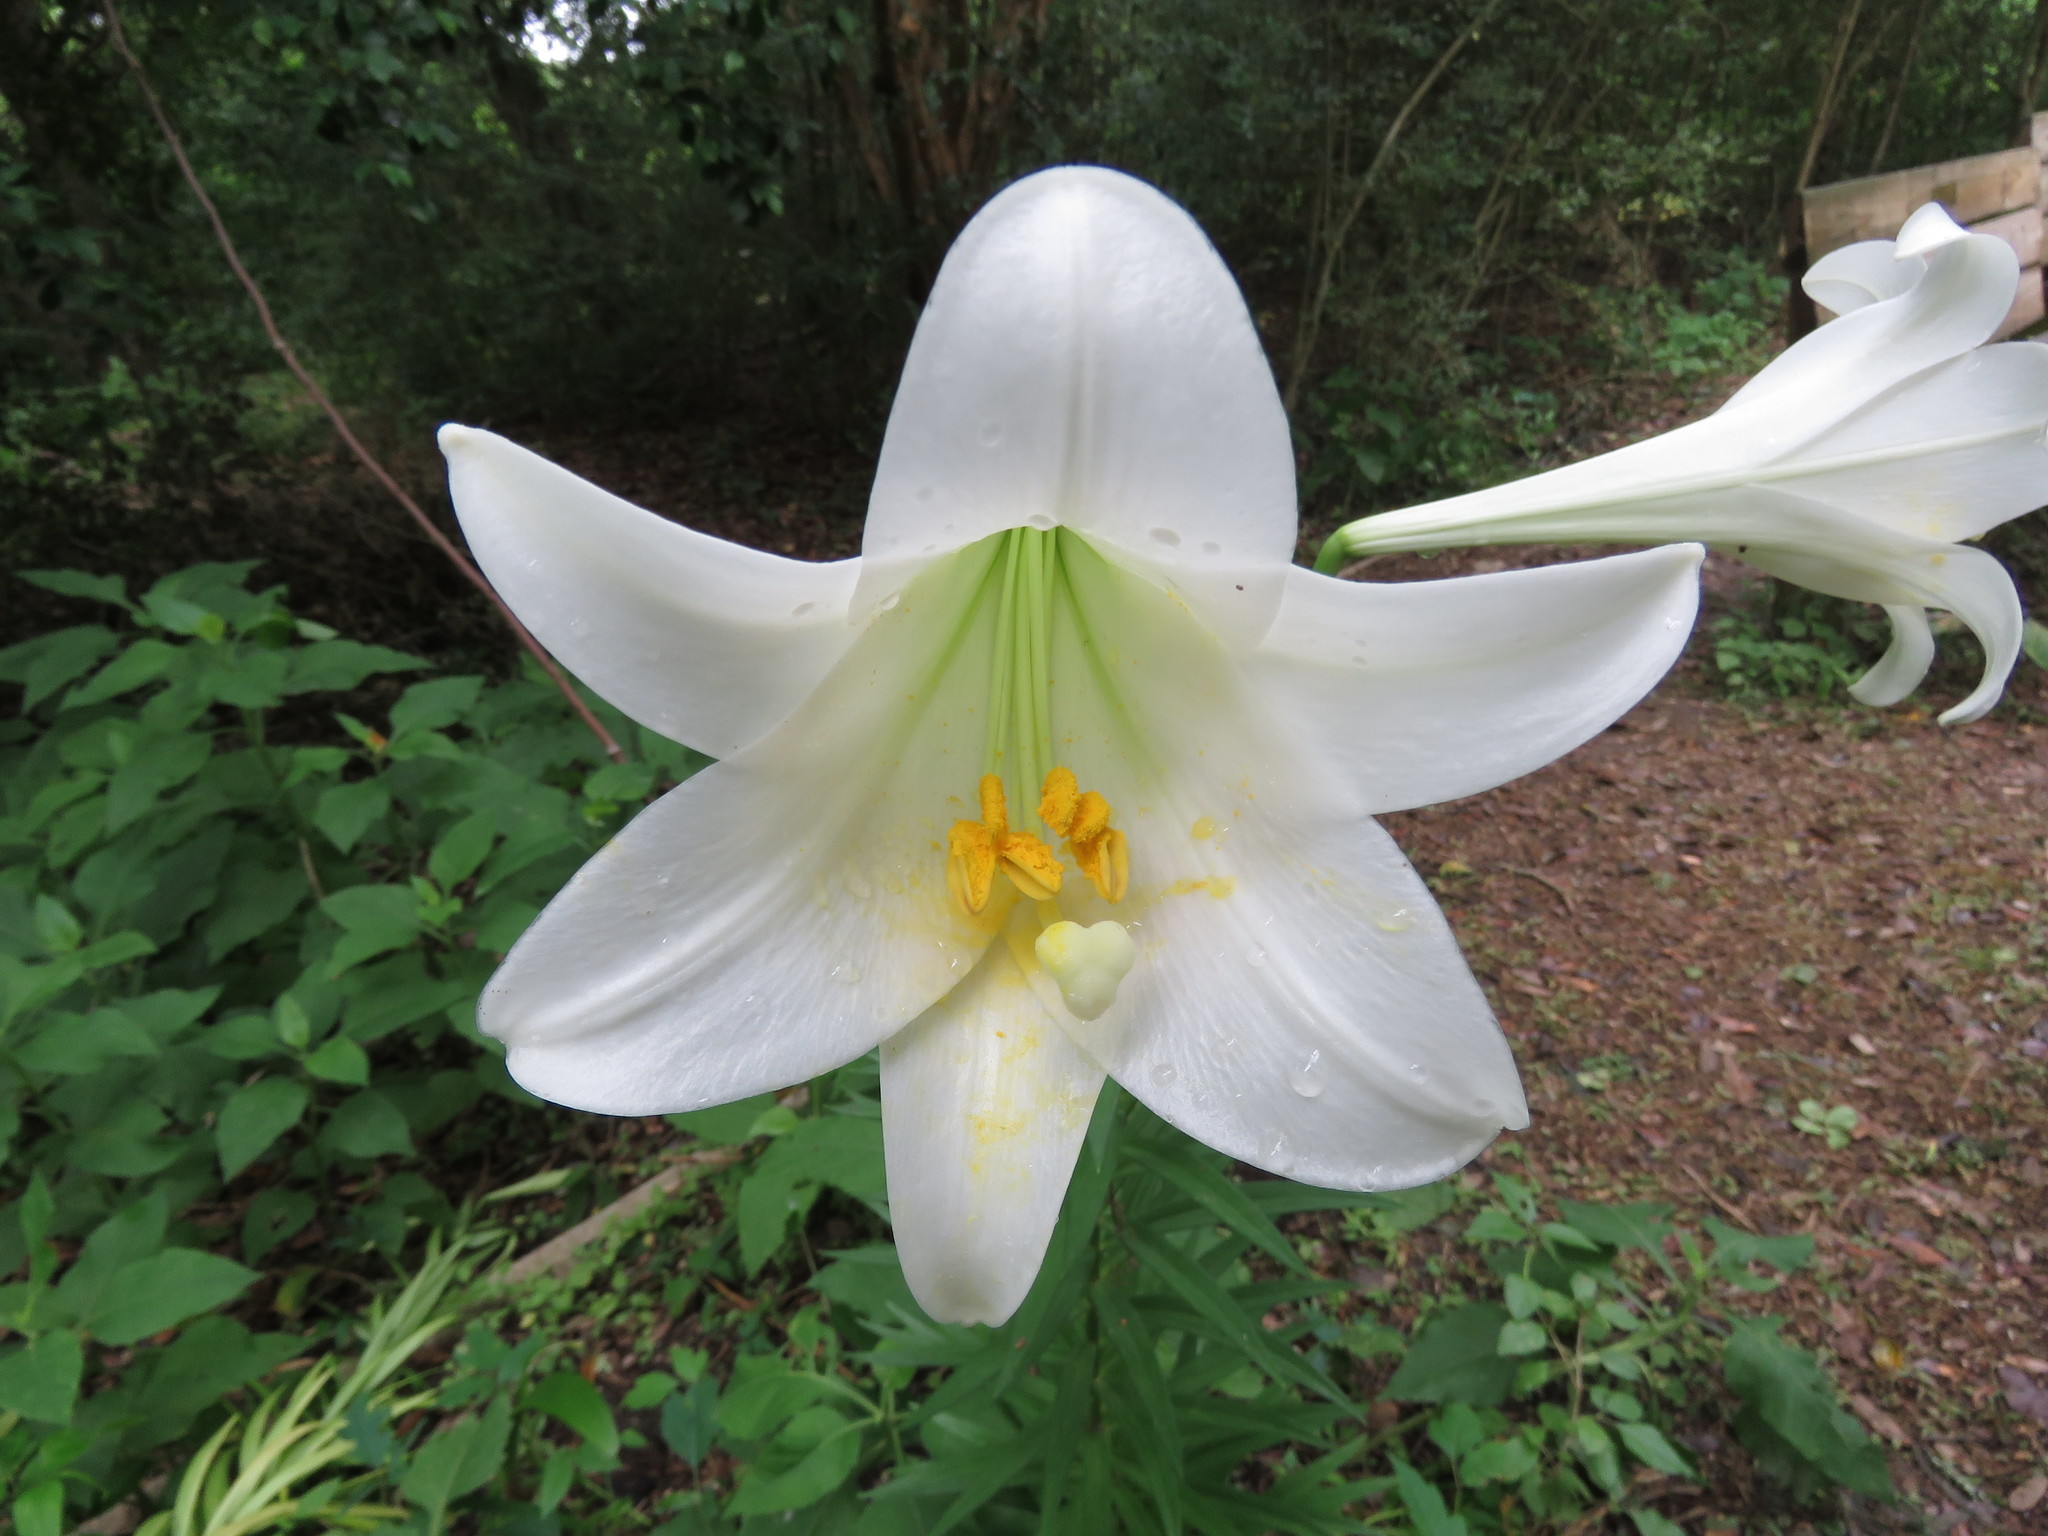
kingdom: Plantae
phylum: Tracheophyta
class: Liliopsida
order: Liliales
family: Liliaceae
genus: Lilium
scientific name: Lilium longiflorum
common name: Easter lily
